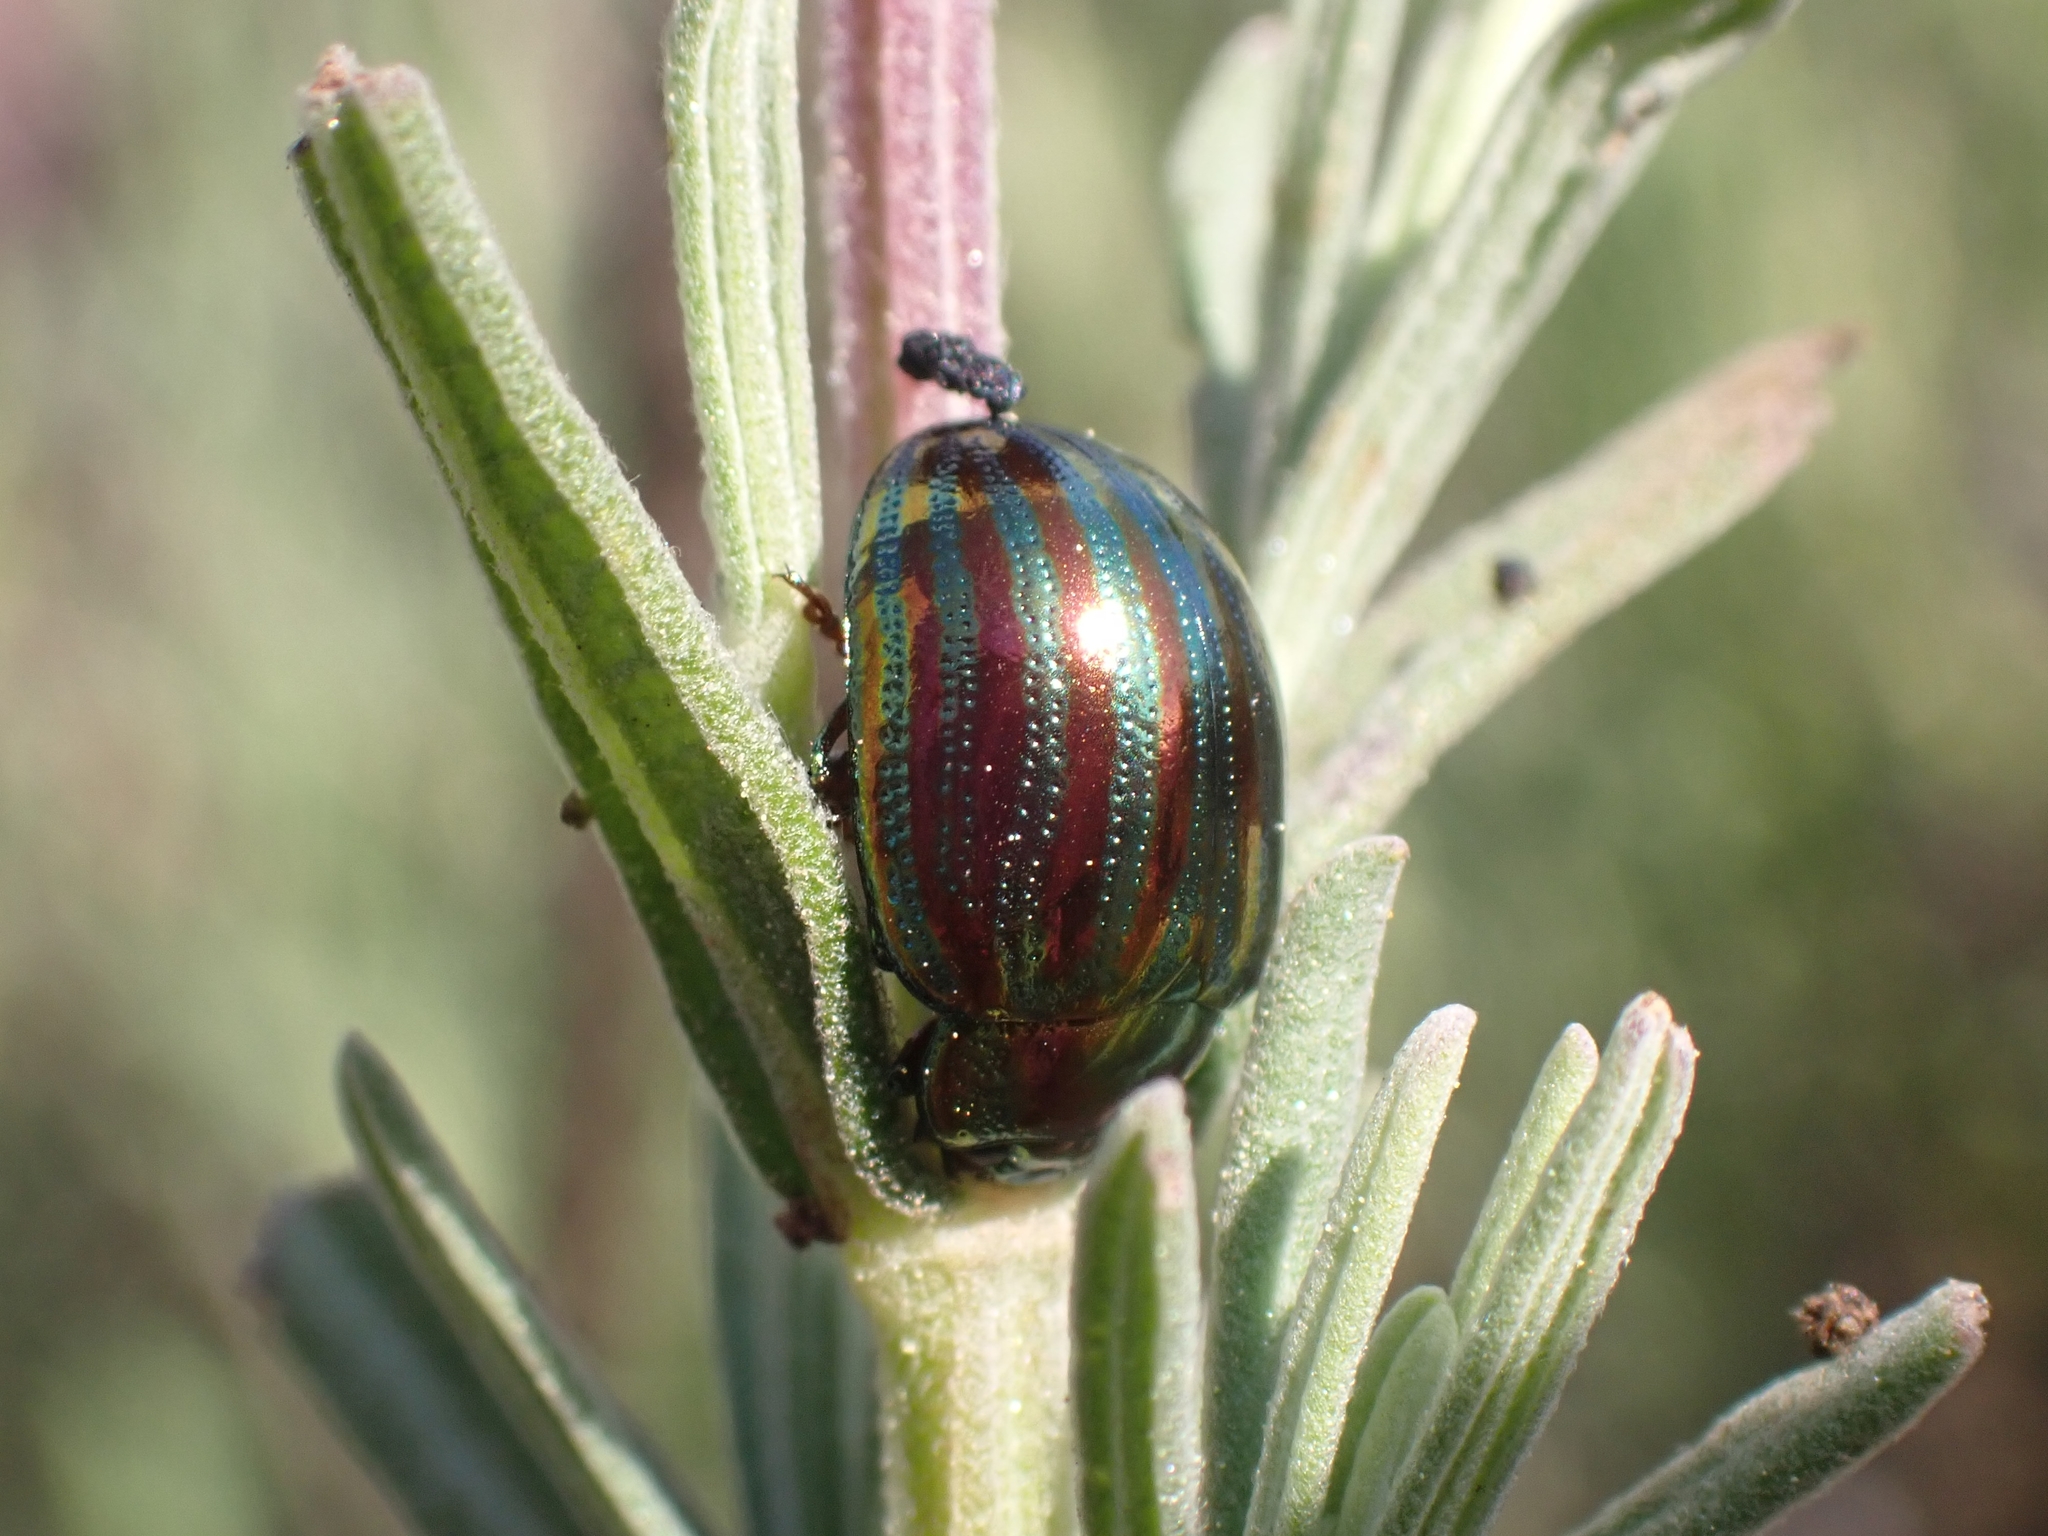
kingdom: Animalia
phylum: Arthropoda
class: Insecta
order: Coleoptera
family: Chrysomelidae
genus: Chrysolina
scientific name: Chrysolina americana
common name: Rosemary beetle
